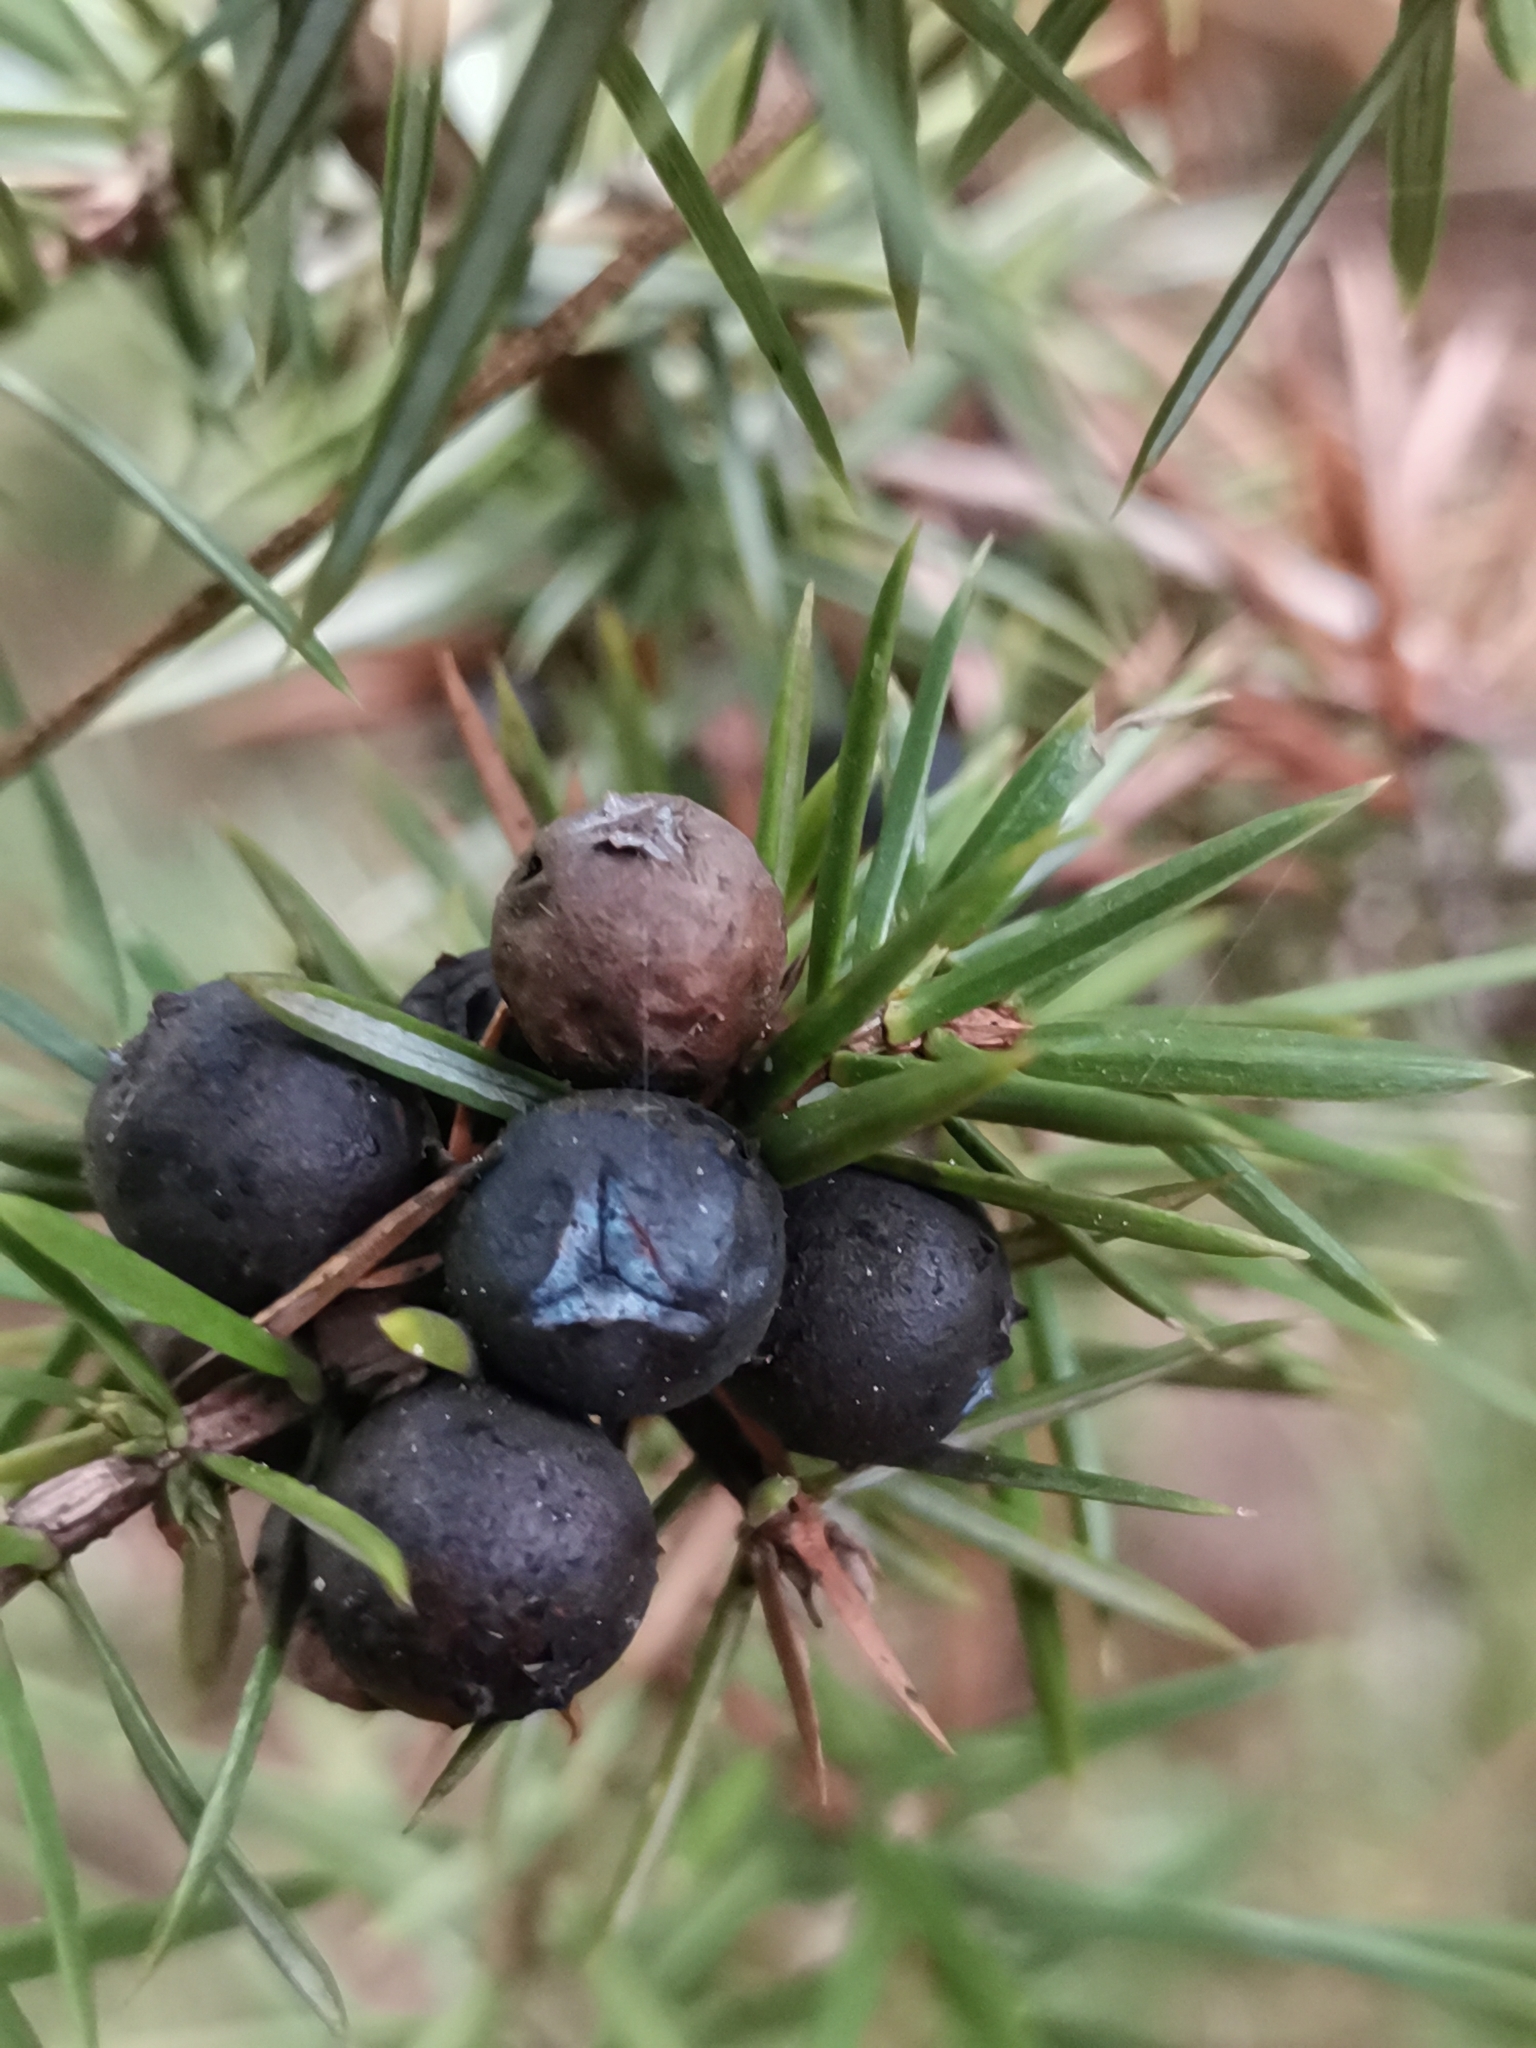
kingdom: Plantae
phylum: Tracheophyta
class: Pinopsida
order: Pinales
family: Cupressaceae
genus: Juniperus
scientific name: Juniperus communis
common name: Common juniper
